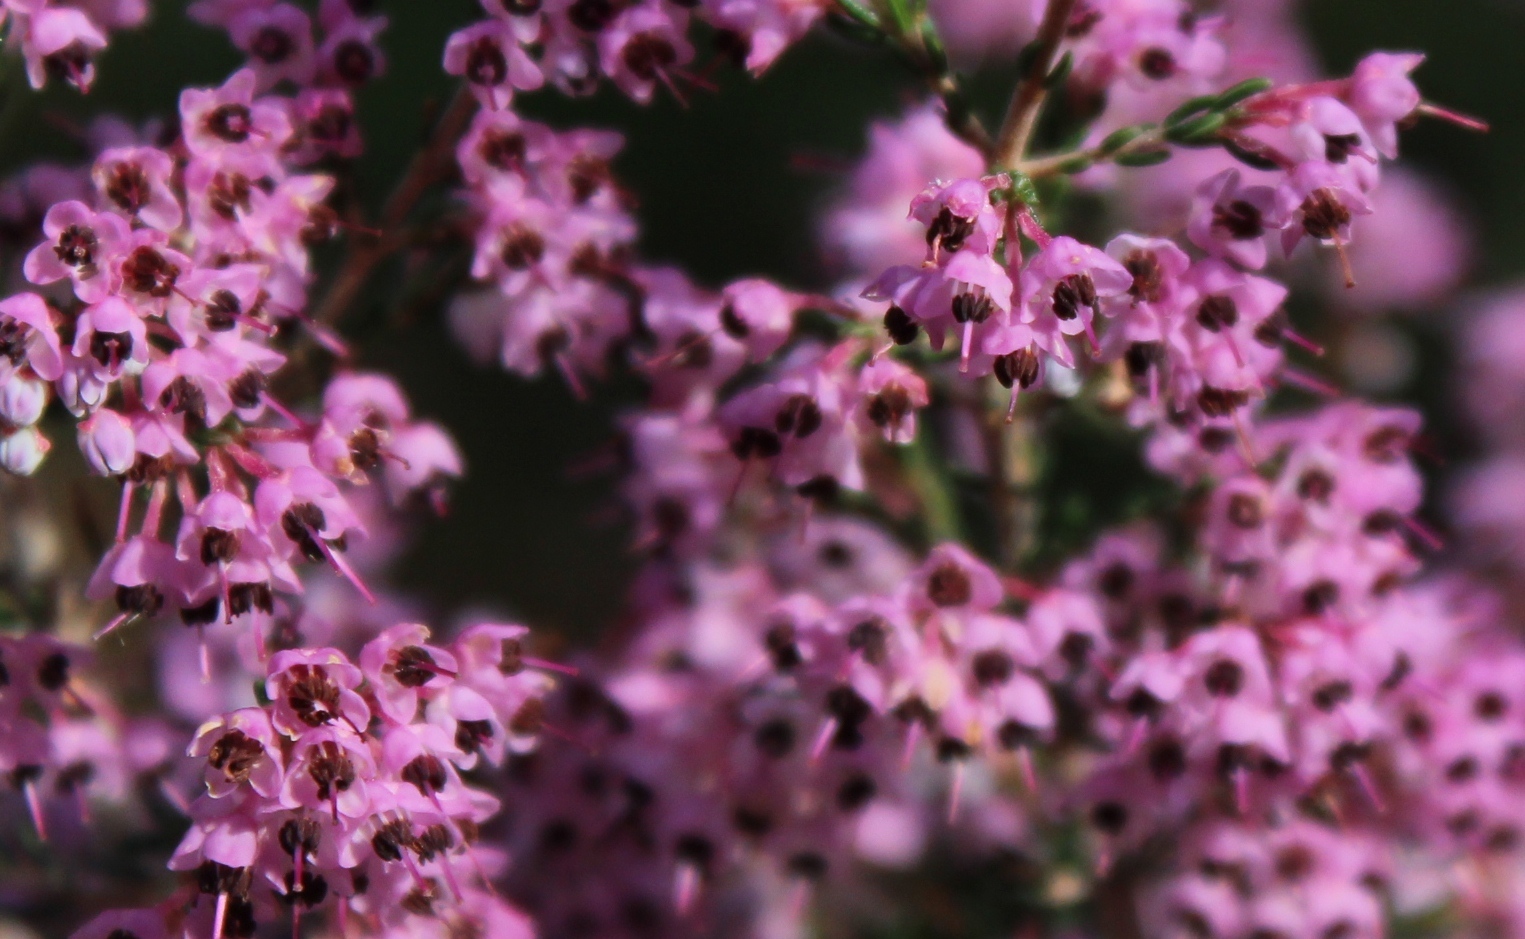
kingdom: Plantae
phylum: Tracheophyta
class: Magnoliopsida
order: Ericales
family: Ericaceae
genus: Erica
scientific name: Erica canaliculata
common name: Hairy grey heather
